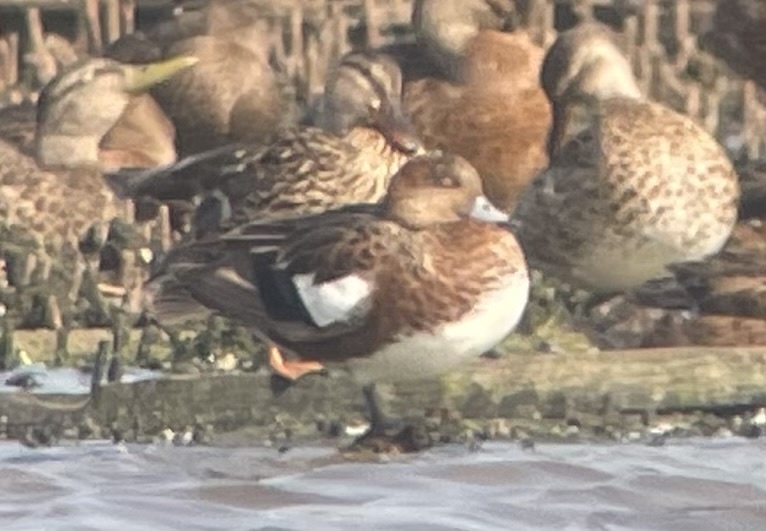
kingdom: Animalia
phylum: Chordata
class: Aves
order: Anseriformes
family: Anatidae
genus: Mareca
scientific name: Mareca americana
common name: American wigeon
